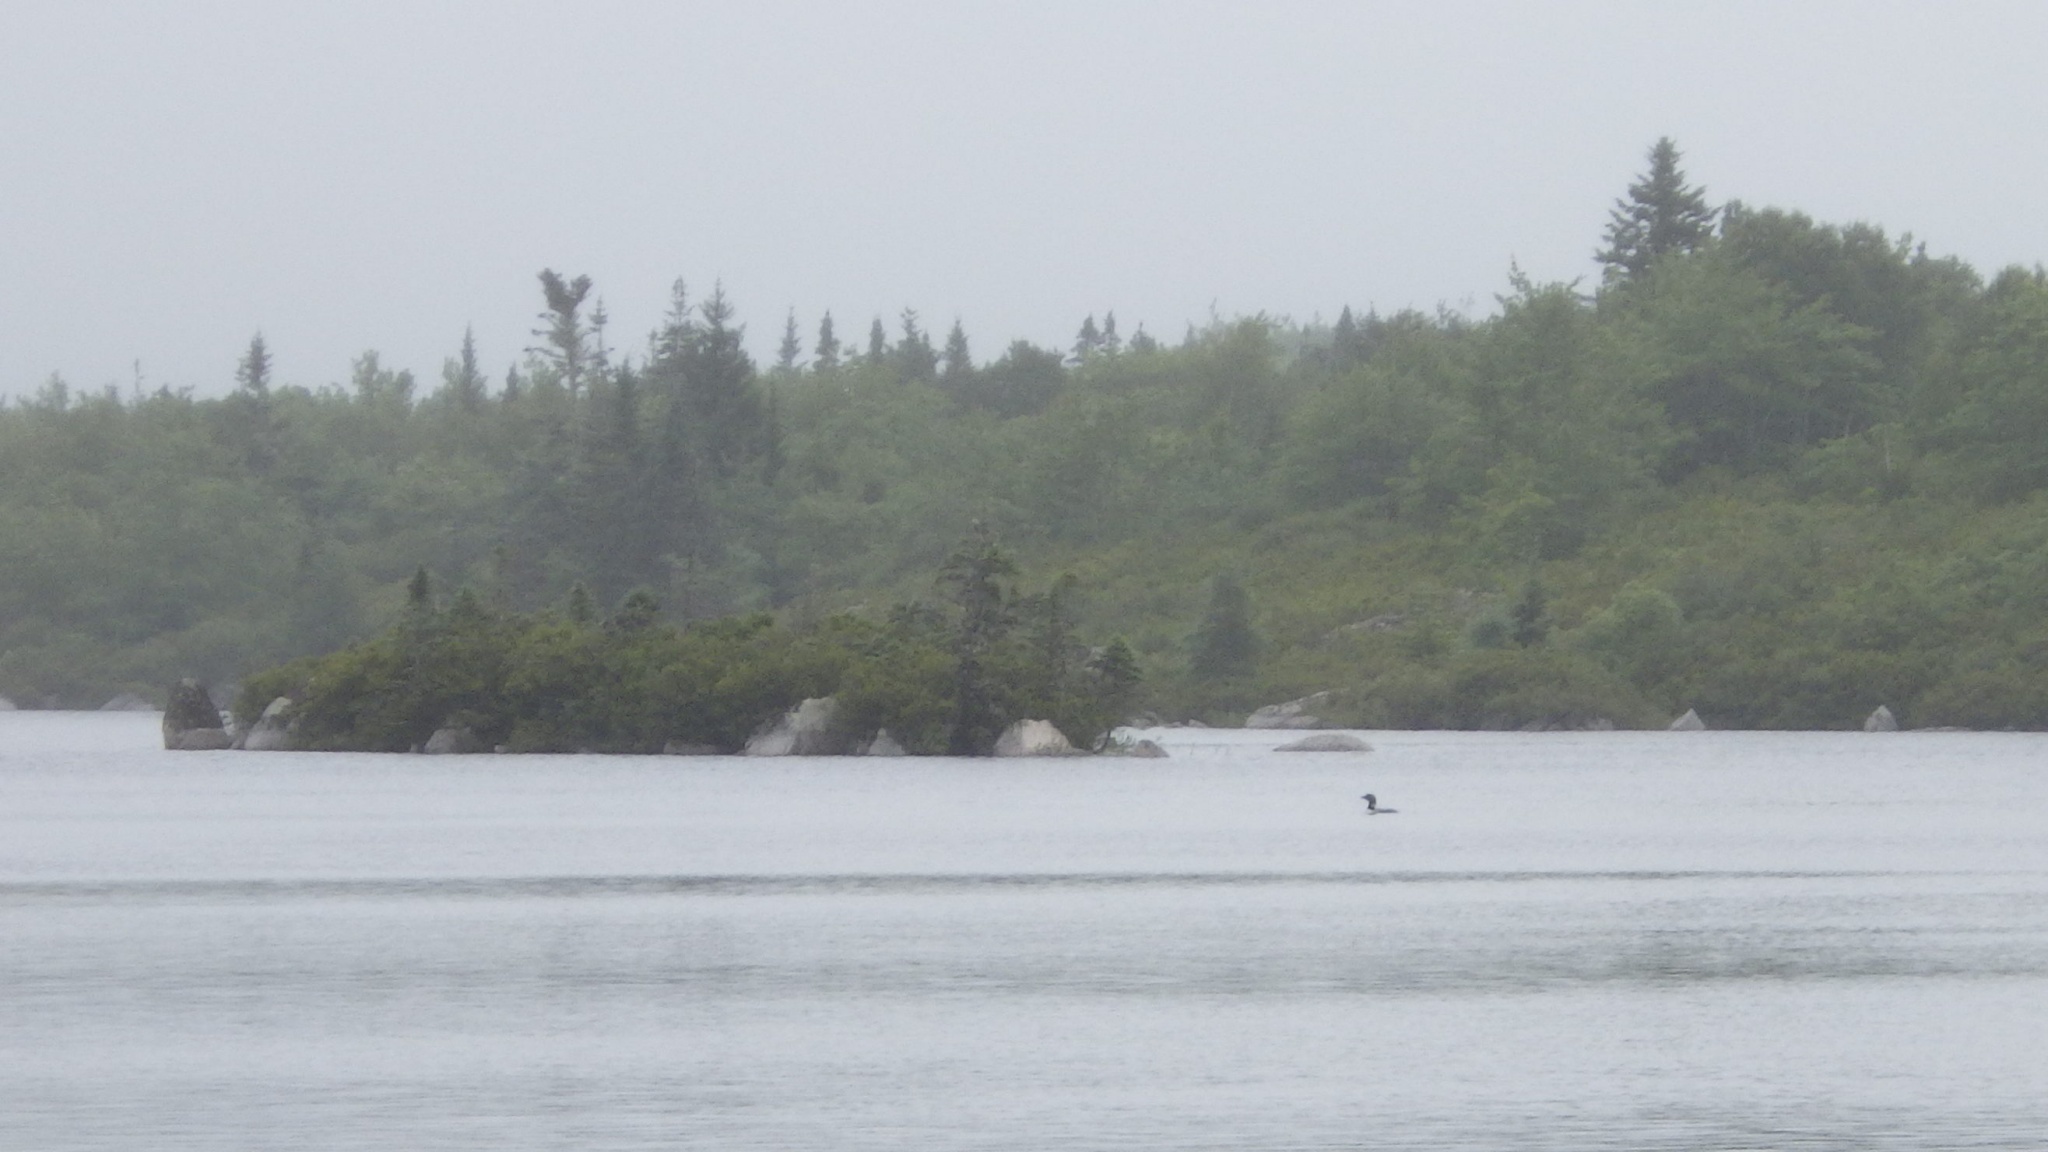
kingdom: Animalia
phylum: Chordata
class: Aves
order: Gaviiformes
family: Gaviidae
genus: Gavia
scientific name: Gavia immer
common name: Common loon
